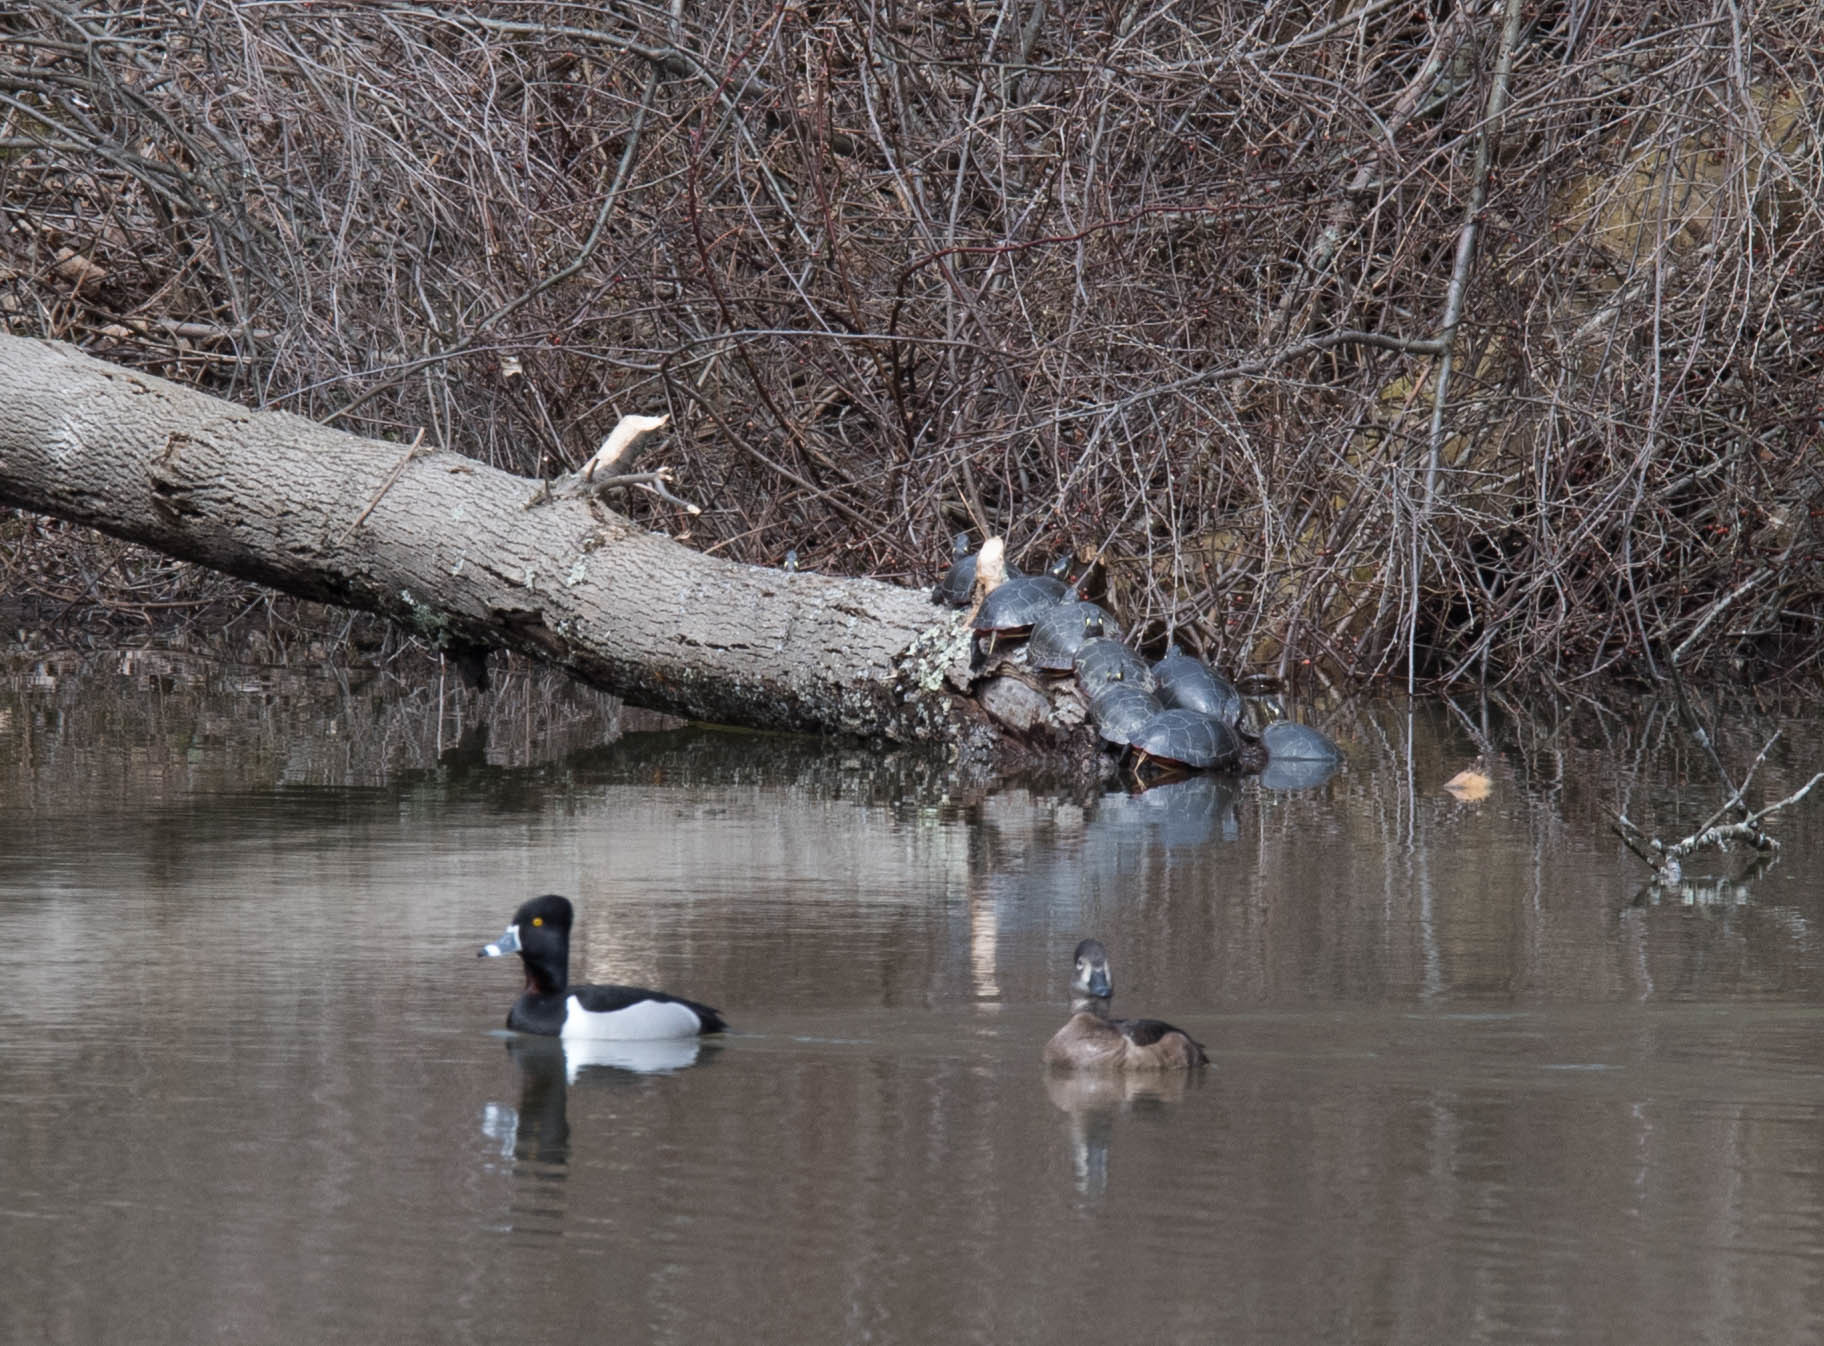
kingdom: Animalia
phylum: Chordata
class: Aves
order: Anseriformes
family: Anatidae
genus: Aythya
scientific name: Aythya collaris
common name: Ring-necked duck
